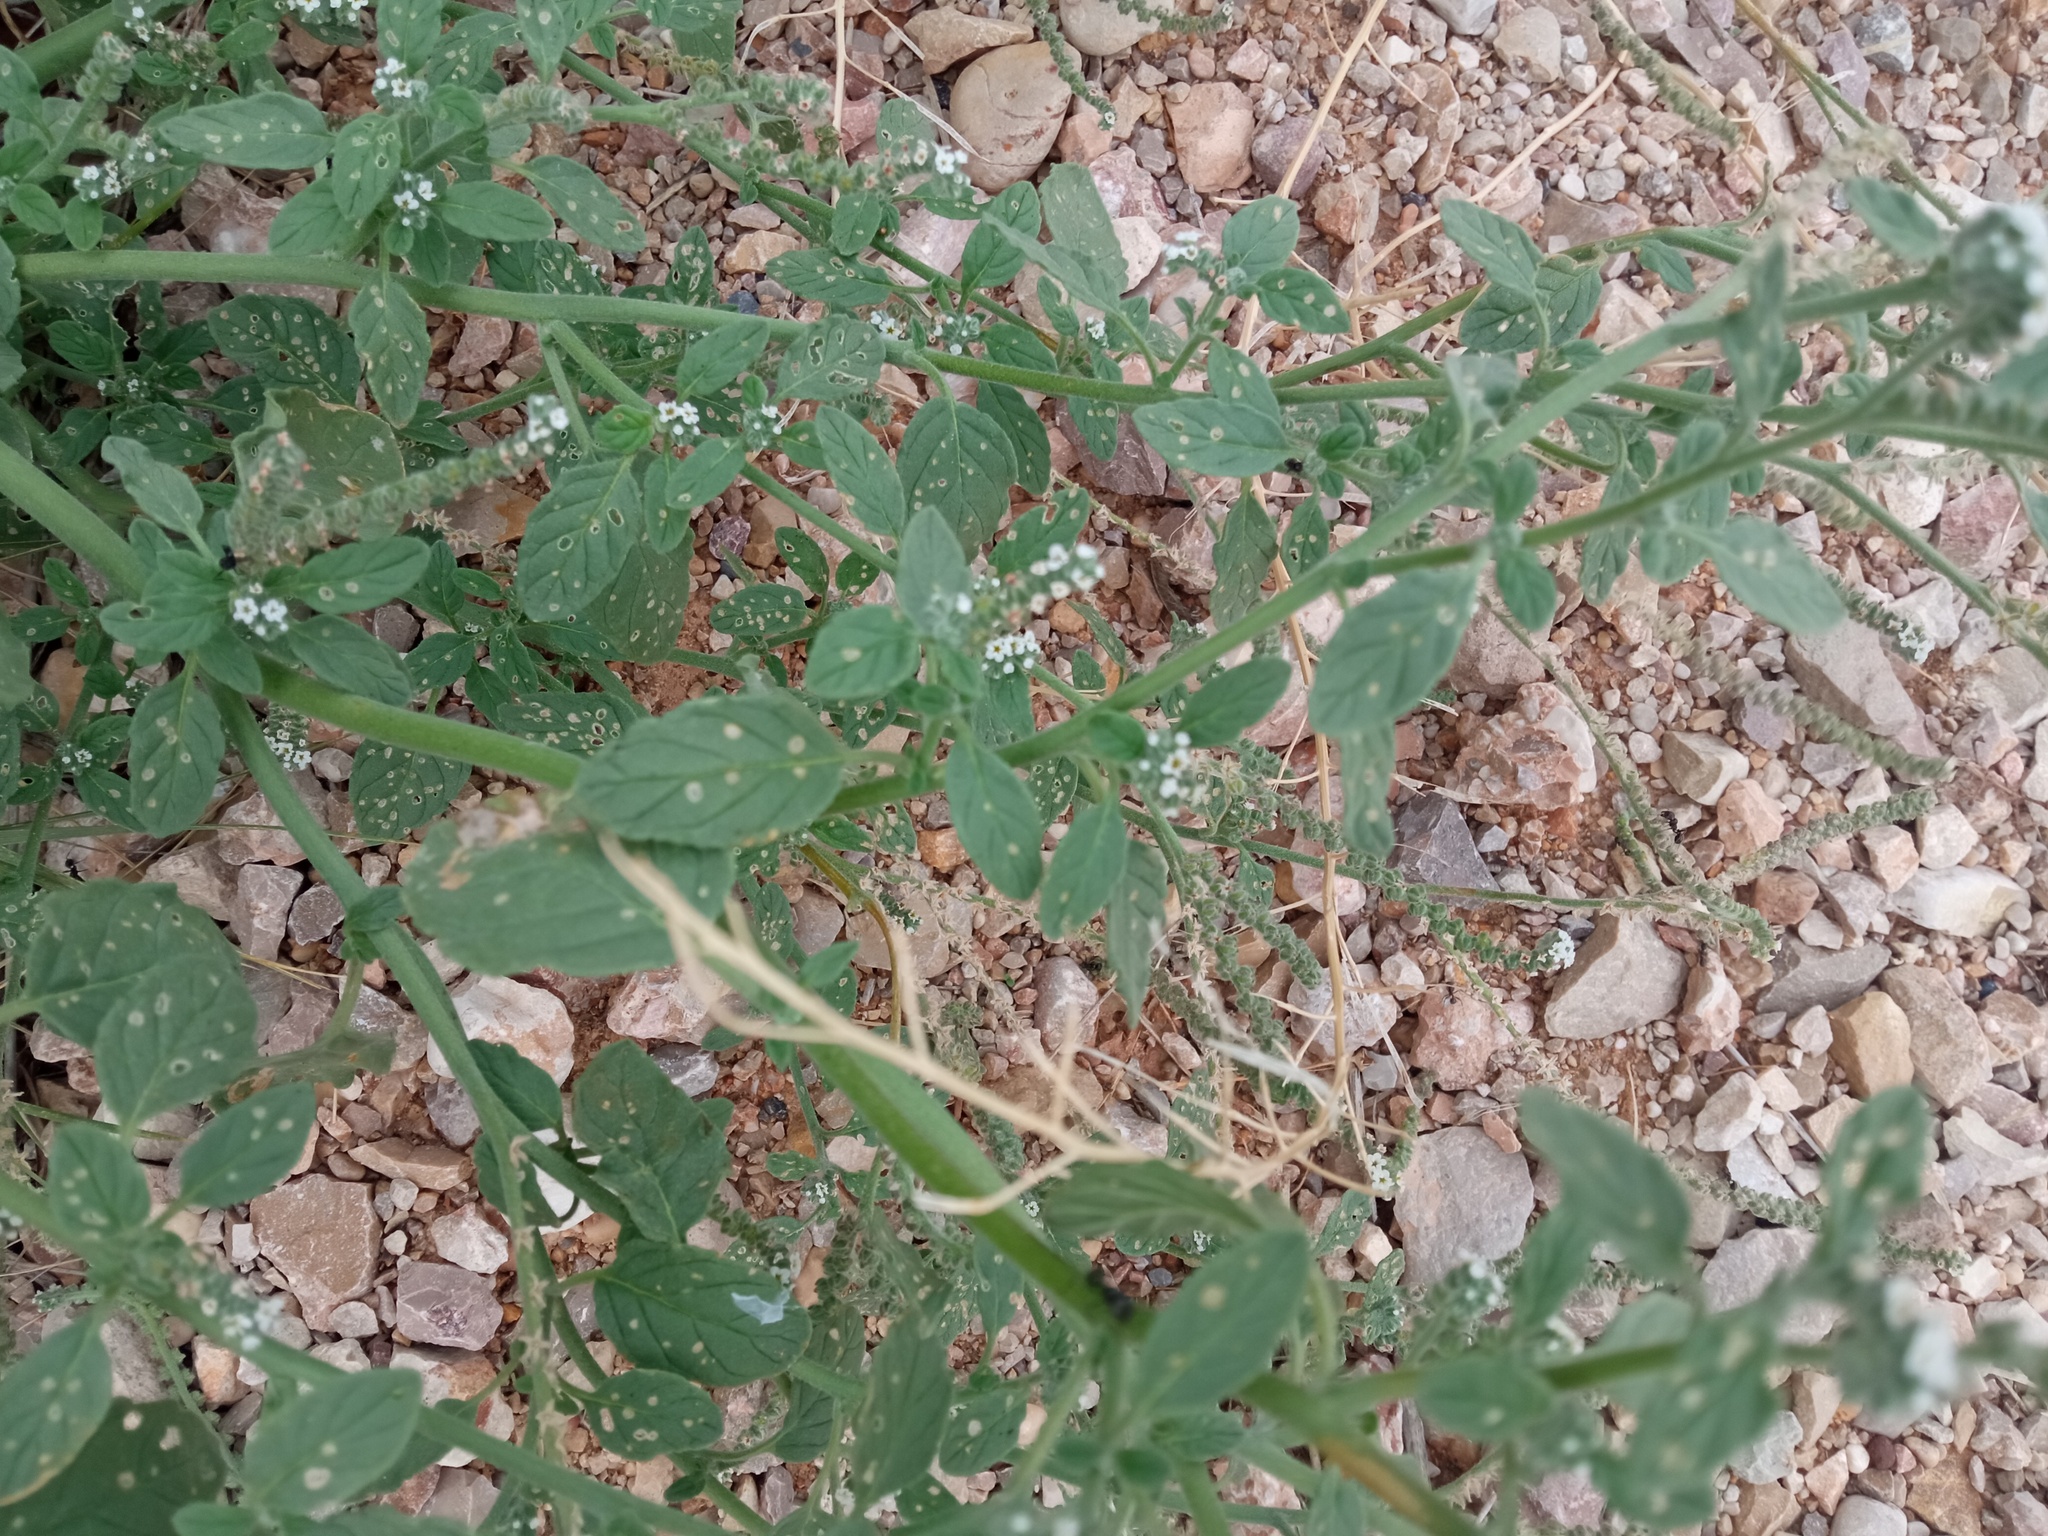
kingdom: Plantae
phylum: Tracheophyta
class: Magnoliopsida
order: Boraginales
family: Heliotropiaceae
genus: Heliotropium
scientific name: Heliotropium europaeum
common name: European heliotrope
